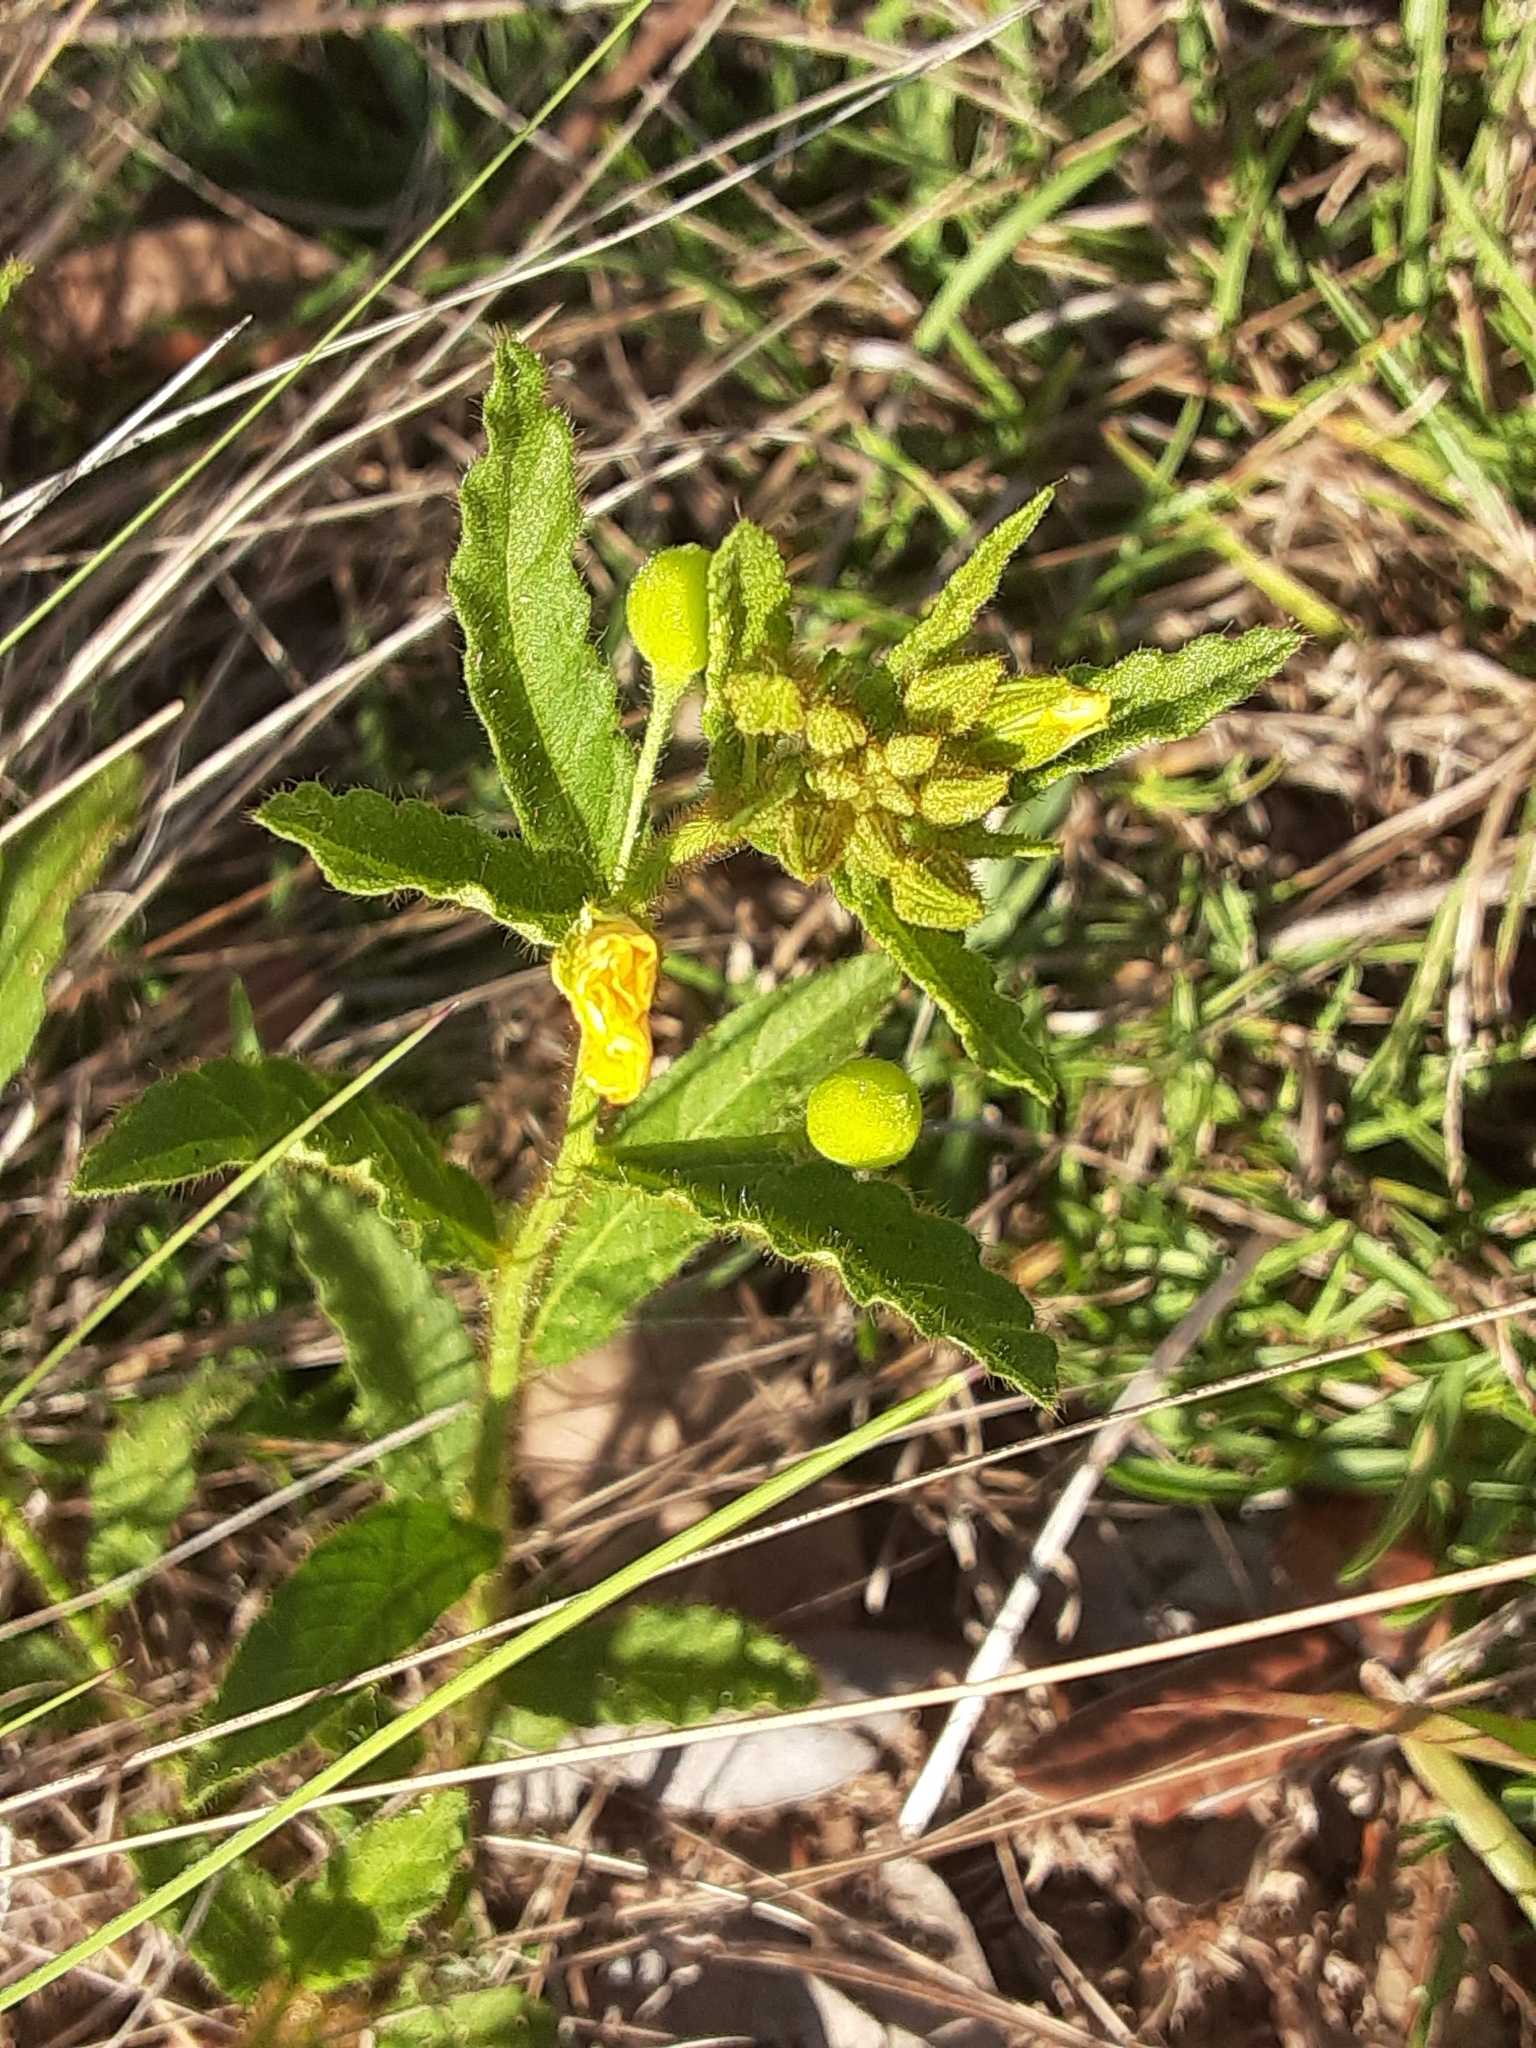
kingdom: Plantae
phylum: Tracheophyta
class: Magnoliopsida
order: Malpighiales
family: Turneraceae
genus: Piriqueta
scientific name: Piriqueta cistoides
